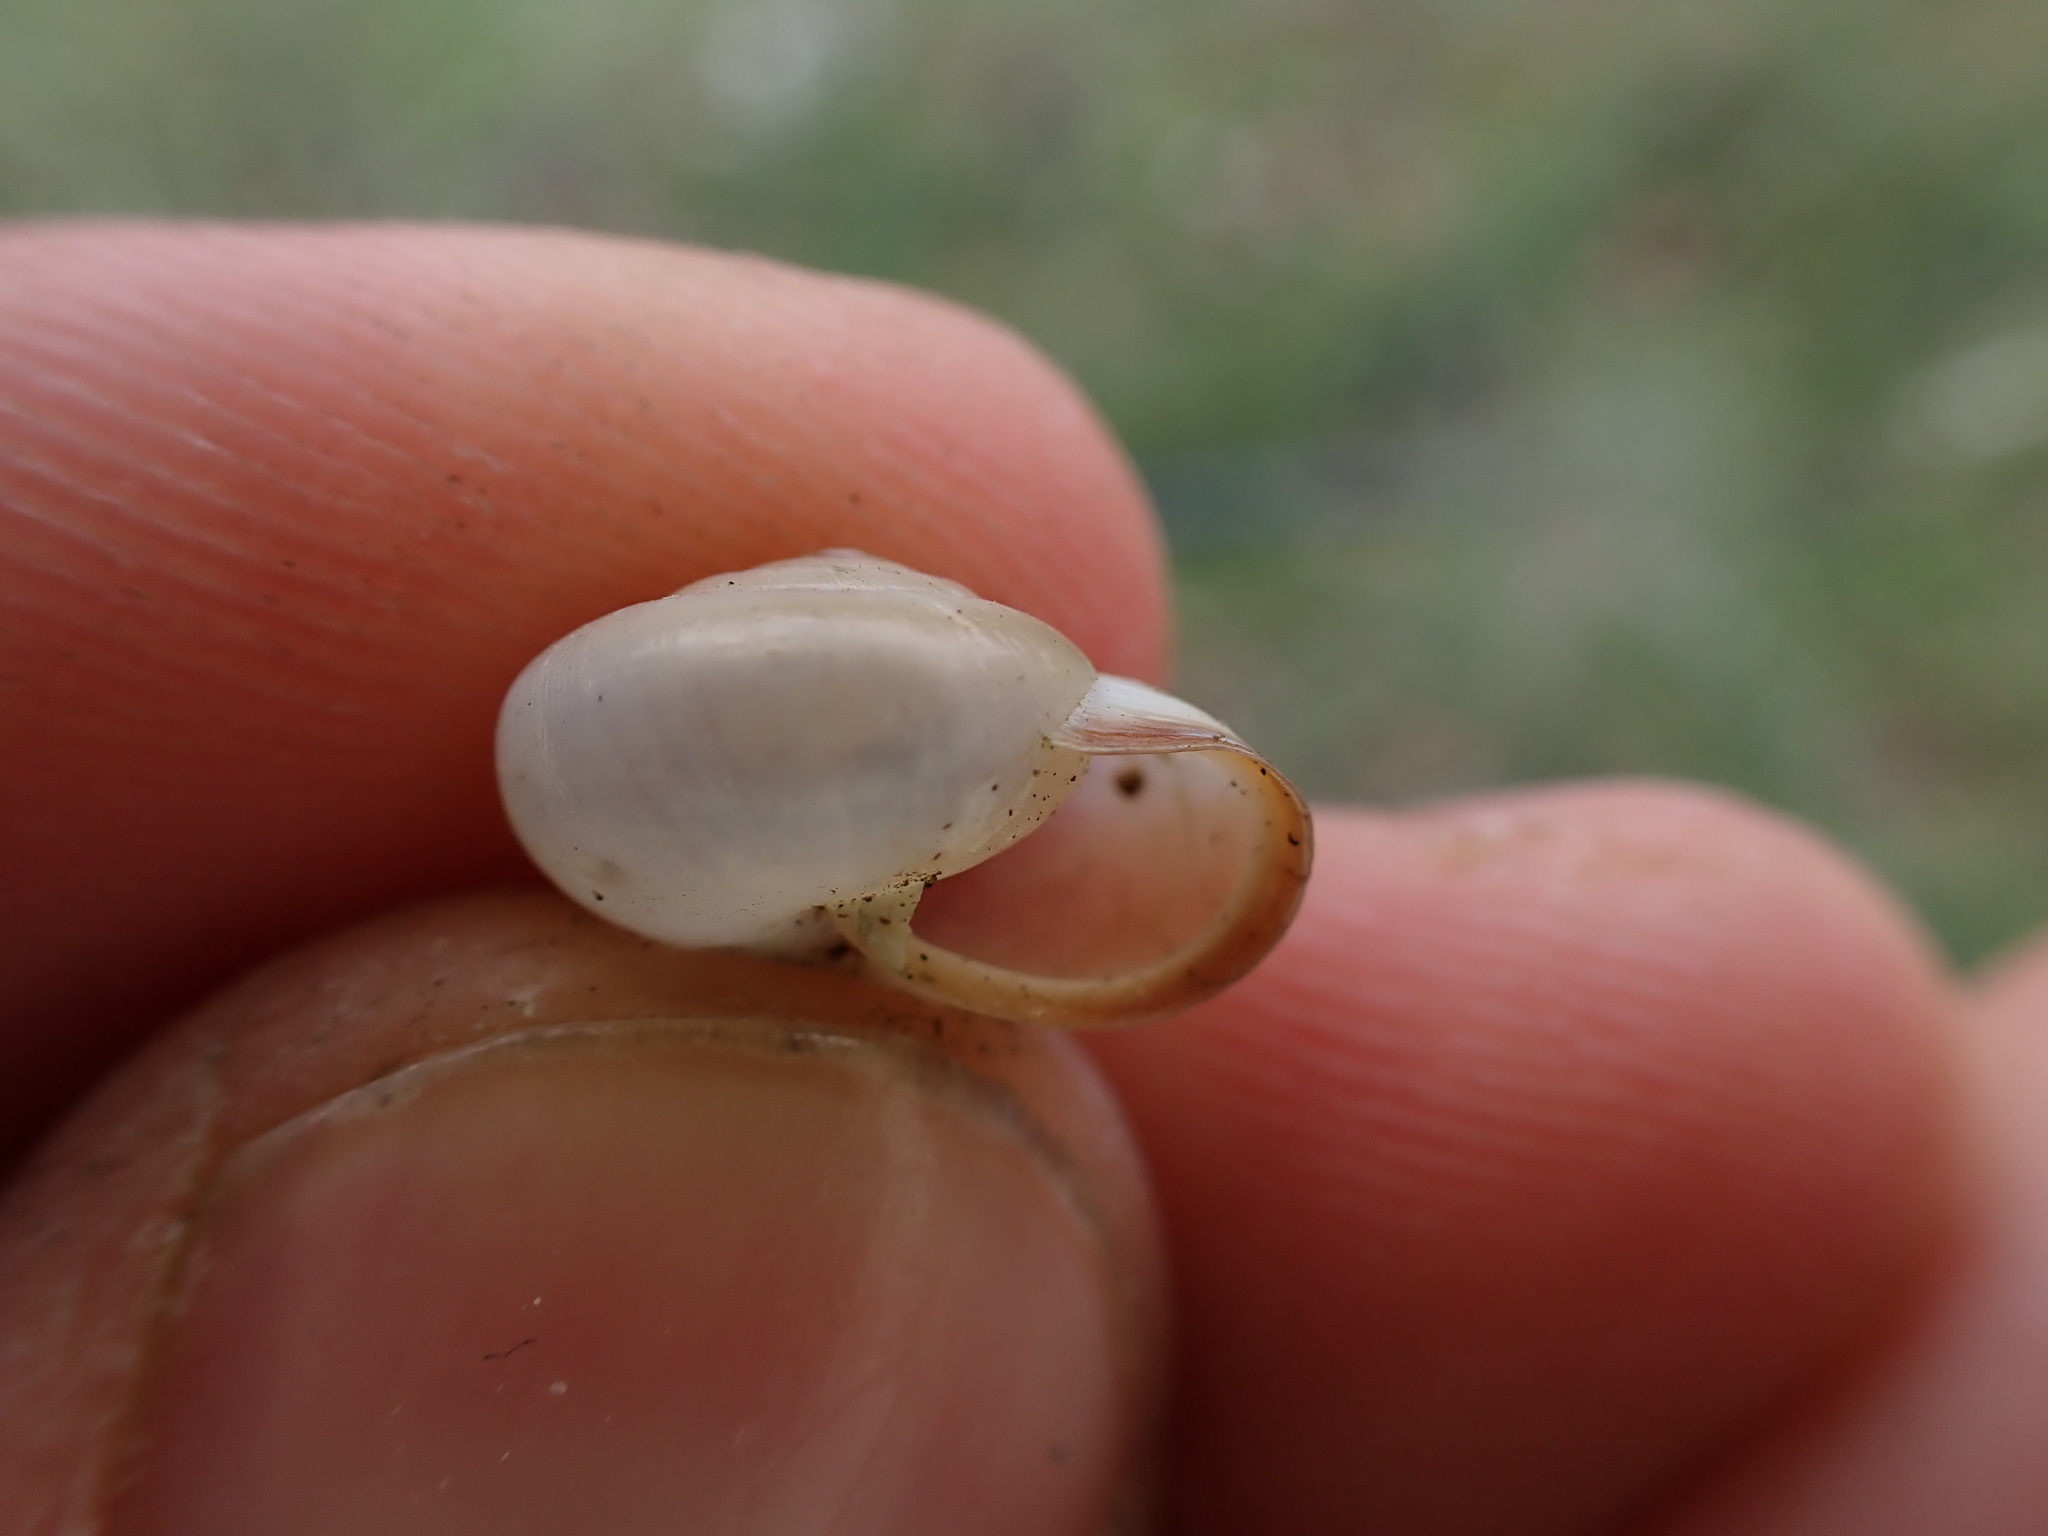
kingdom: Animalia
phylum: Mollusca
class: Gastropoda
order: Stylommatophora
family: Hygromiidae
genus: Monacha
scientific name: Monacha cartusiana
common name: Carthusian snail
